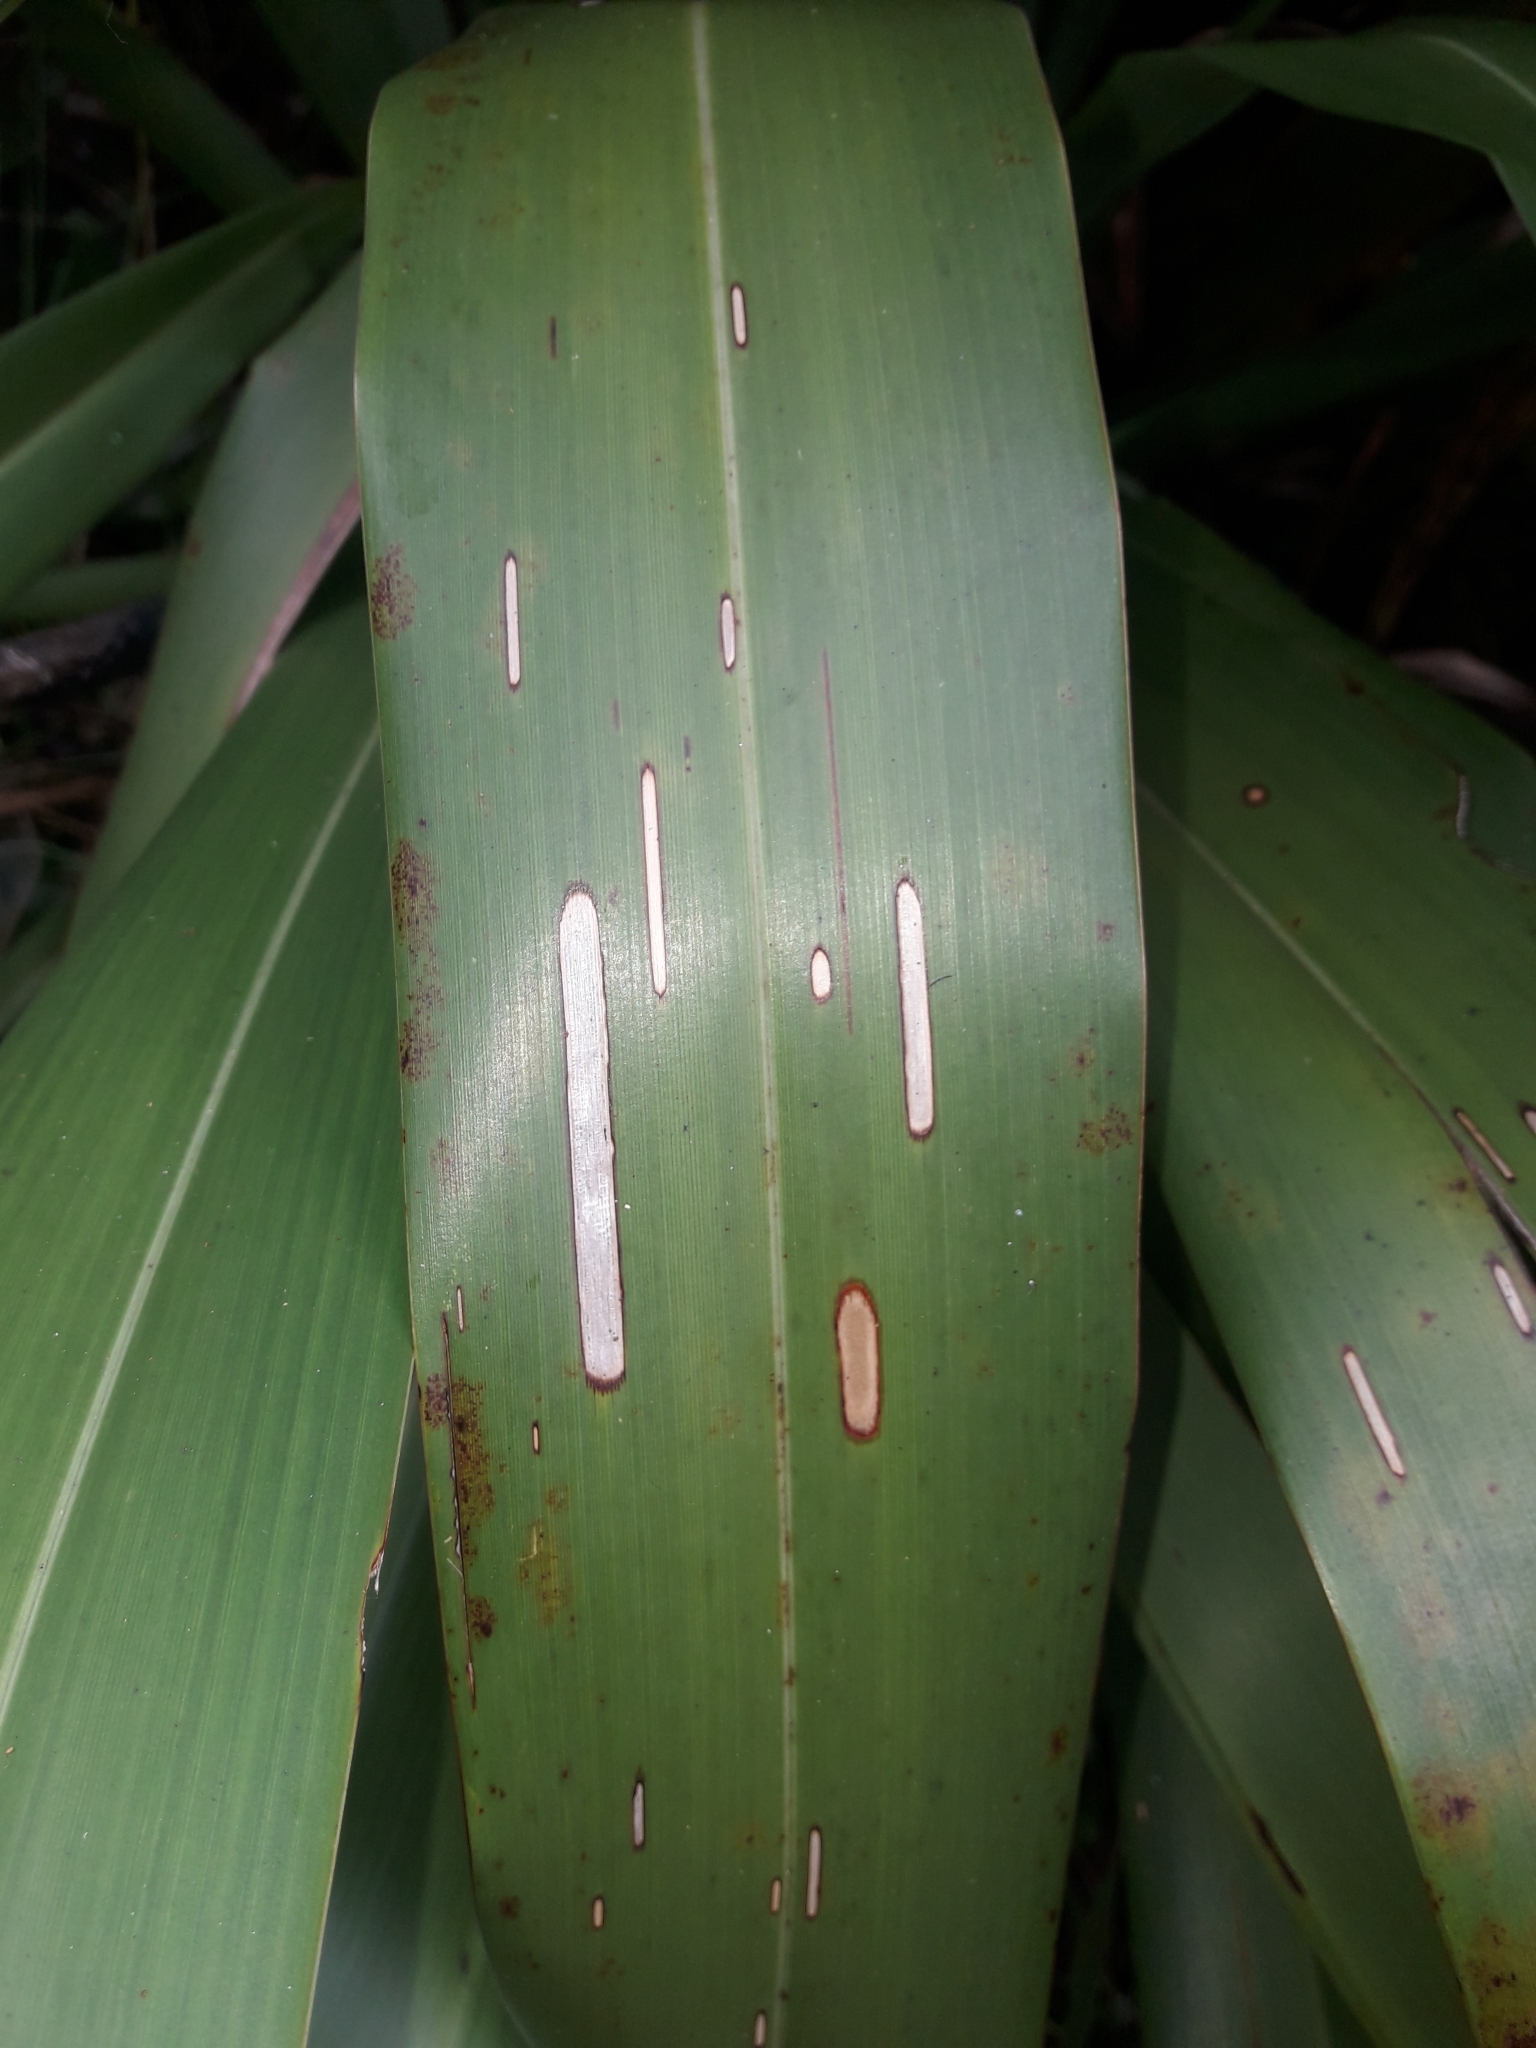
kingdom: Animalia
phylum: Arthropoda
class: Insecta
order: Lepidoptera
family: Geometridae
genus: Orthoclydon
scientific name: Orthoclydon praefectata
